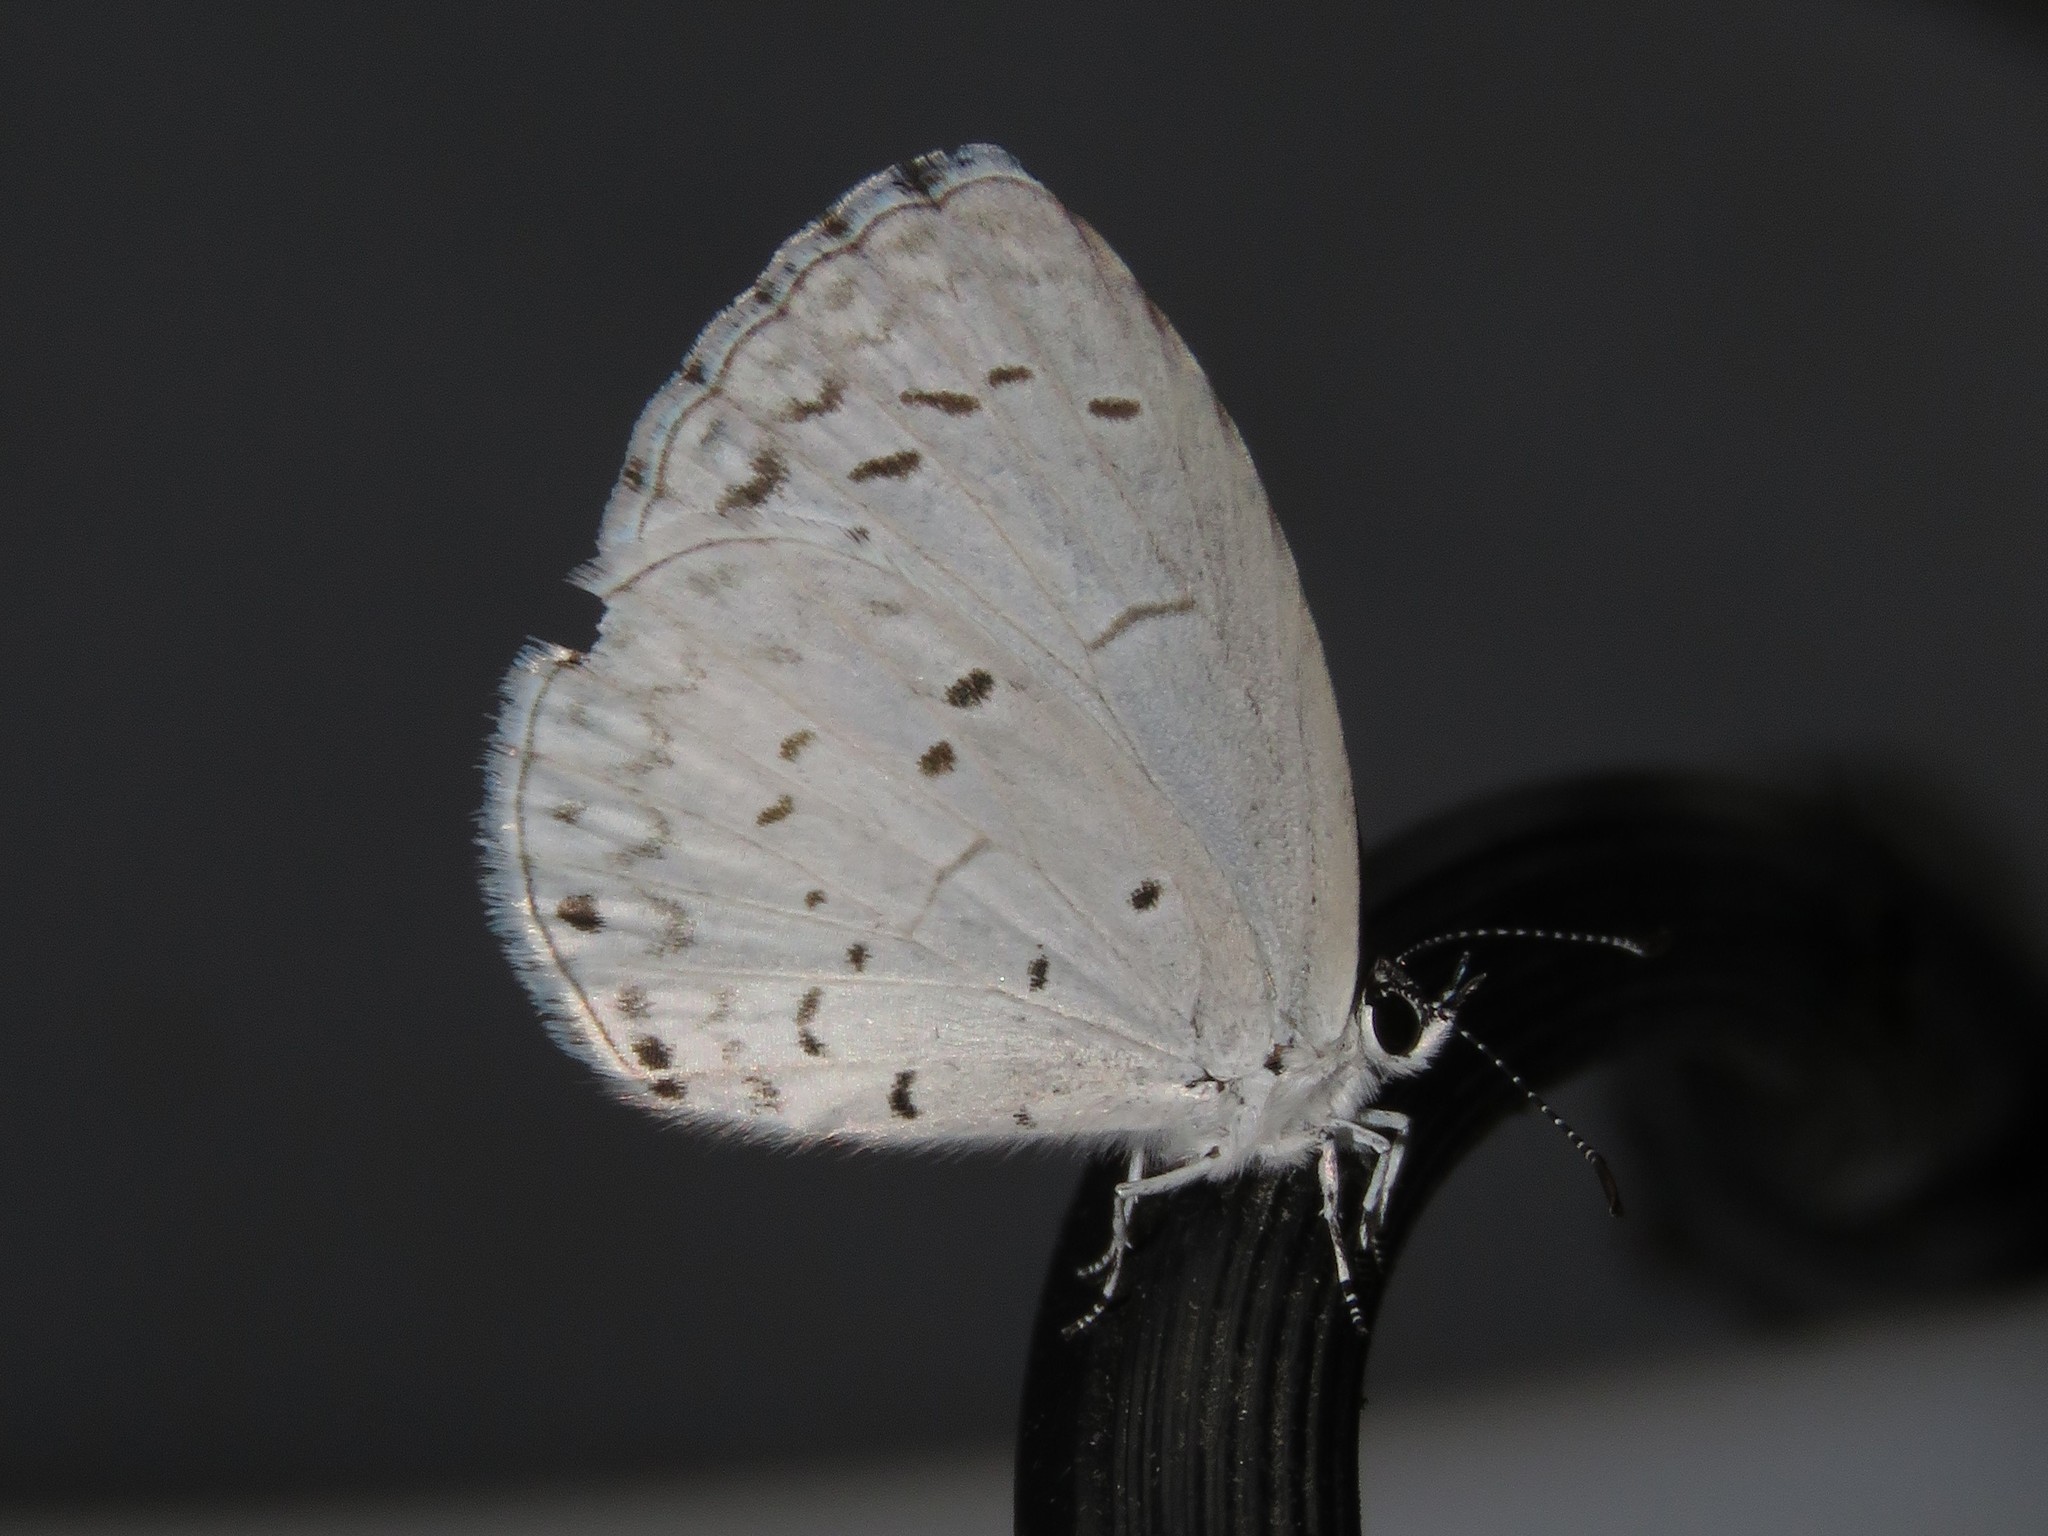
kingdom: Animalia
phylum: Arthropoda
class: Insecta
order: Lepidoptera
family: Lycaenidae
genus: Cyaniris
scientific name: Cyaniris neglecta
